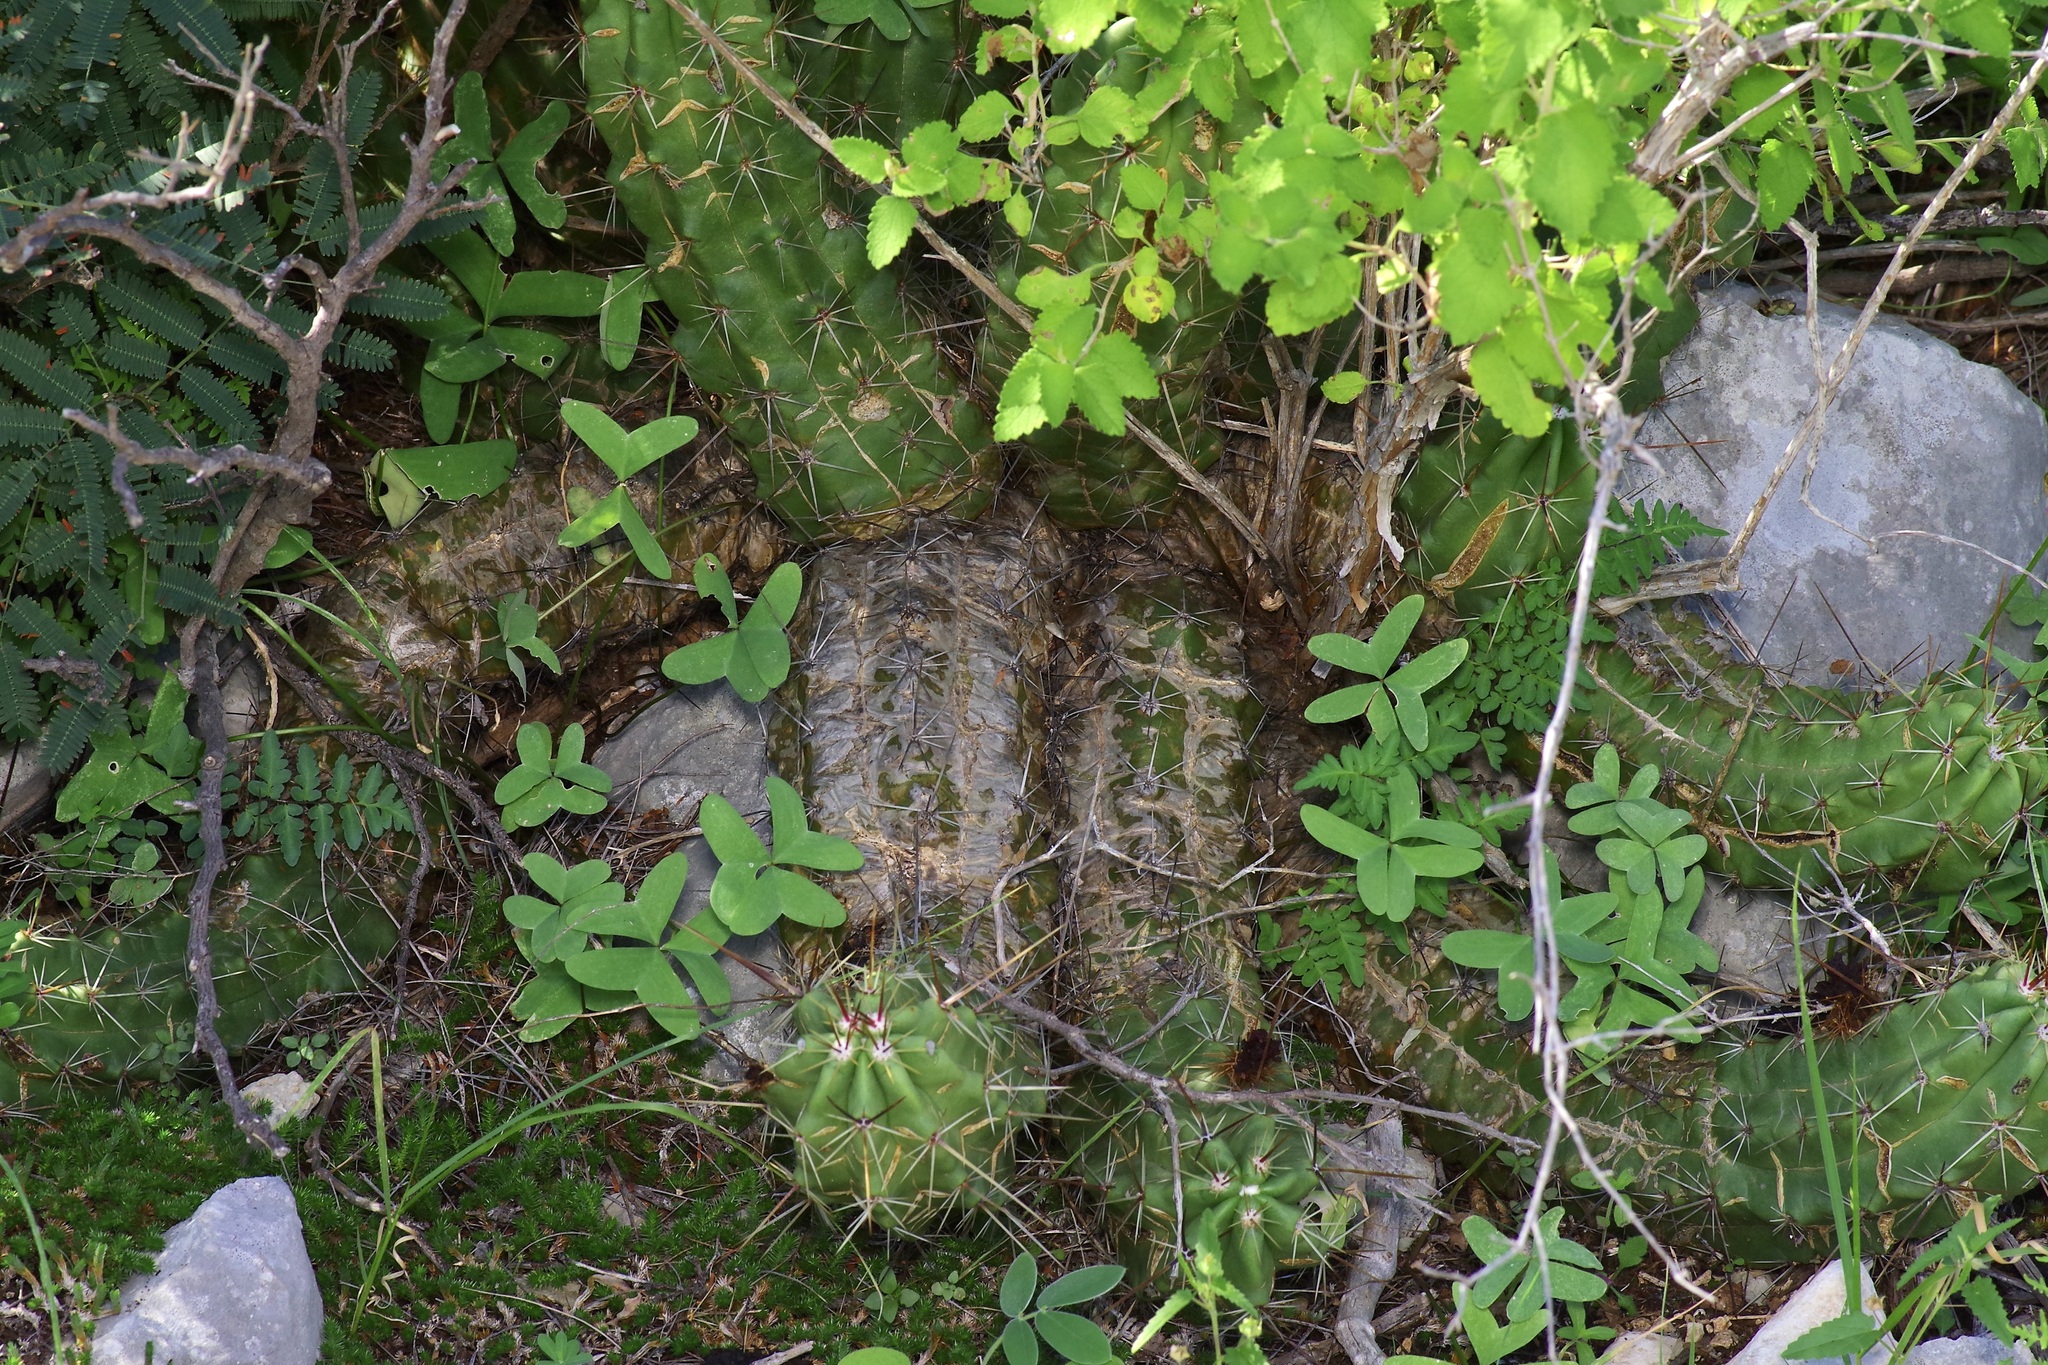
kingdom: Plantae
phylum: Tracheophyta
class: Magnoliopsida
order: Caryophyllales
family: Cactaceae
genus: Echinocereus
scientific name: Echinocereus enneacanthus
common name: Pitaya
